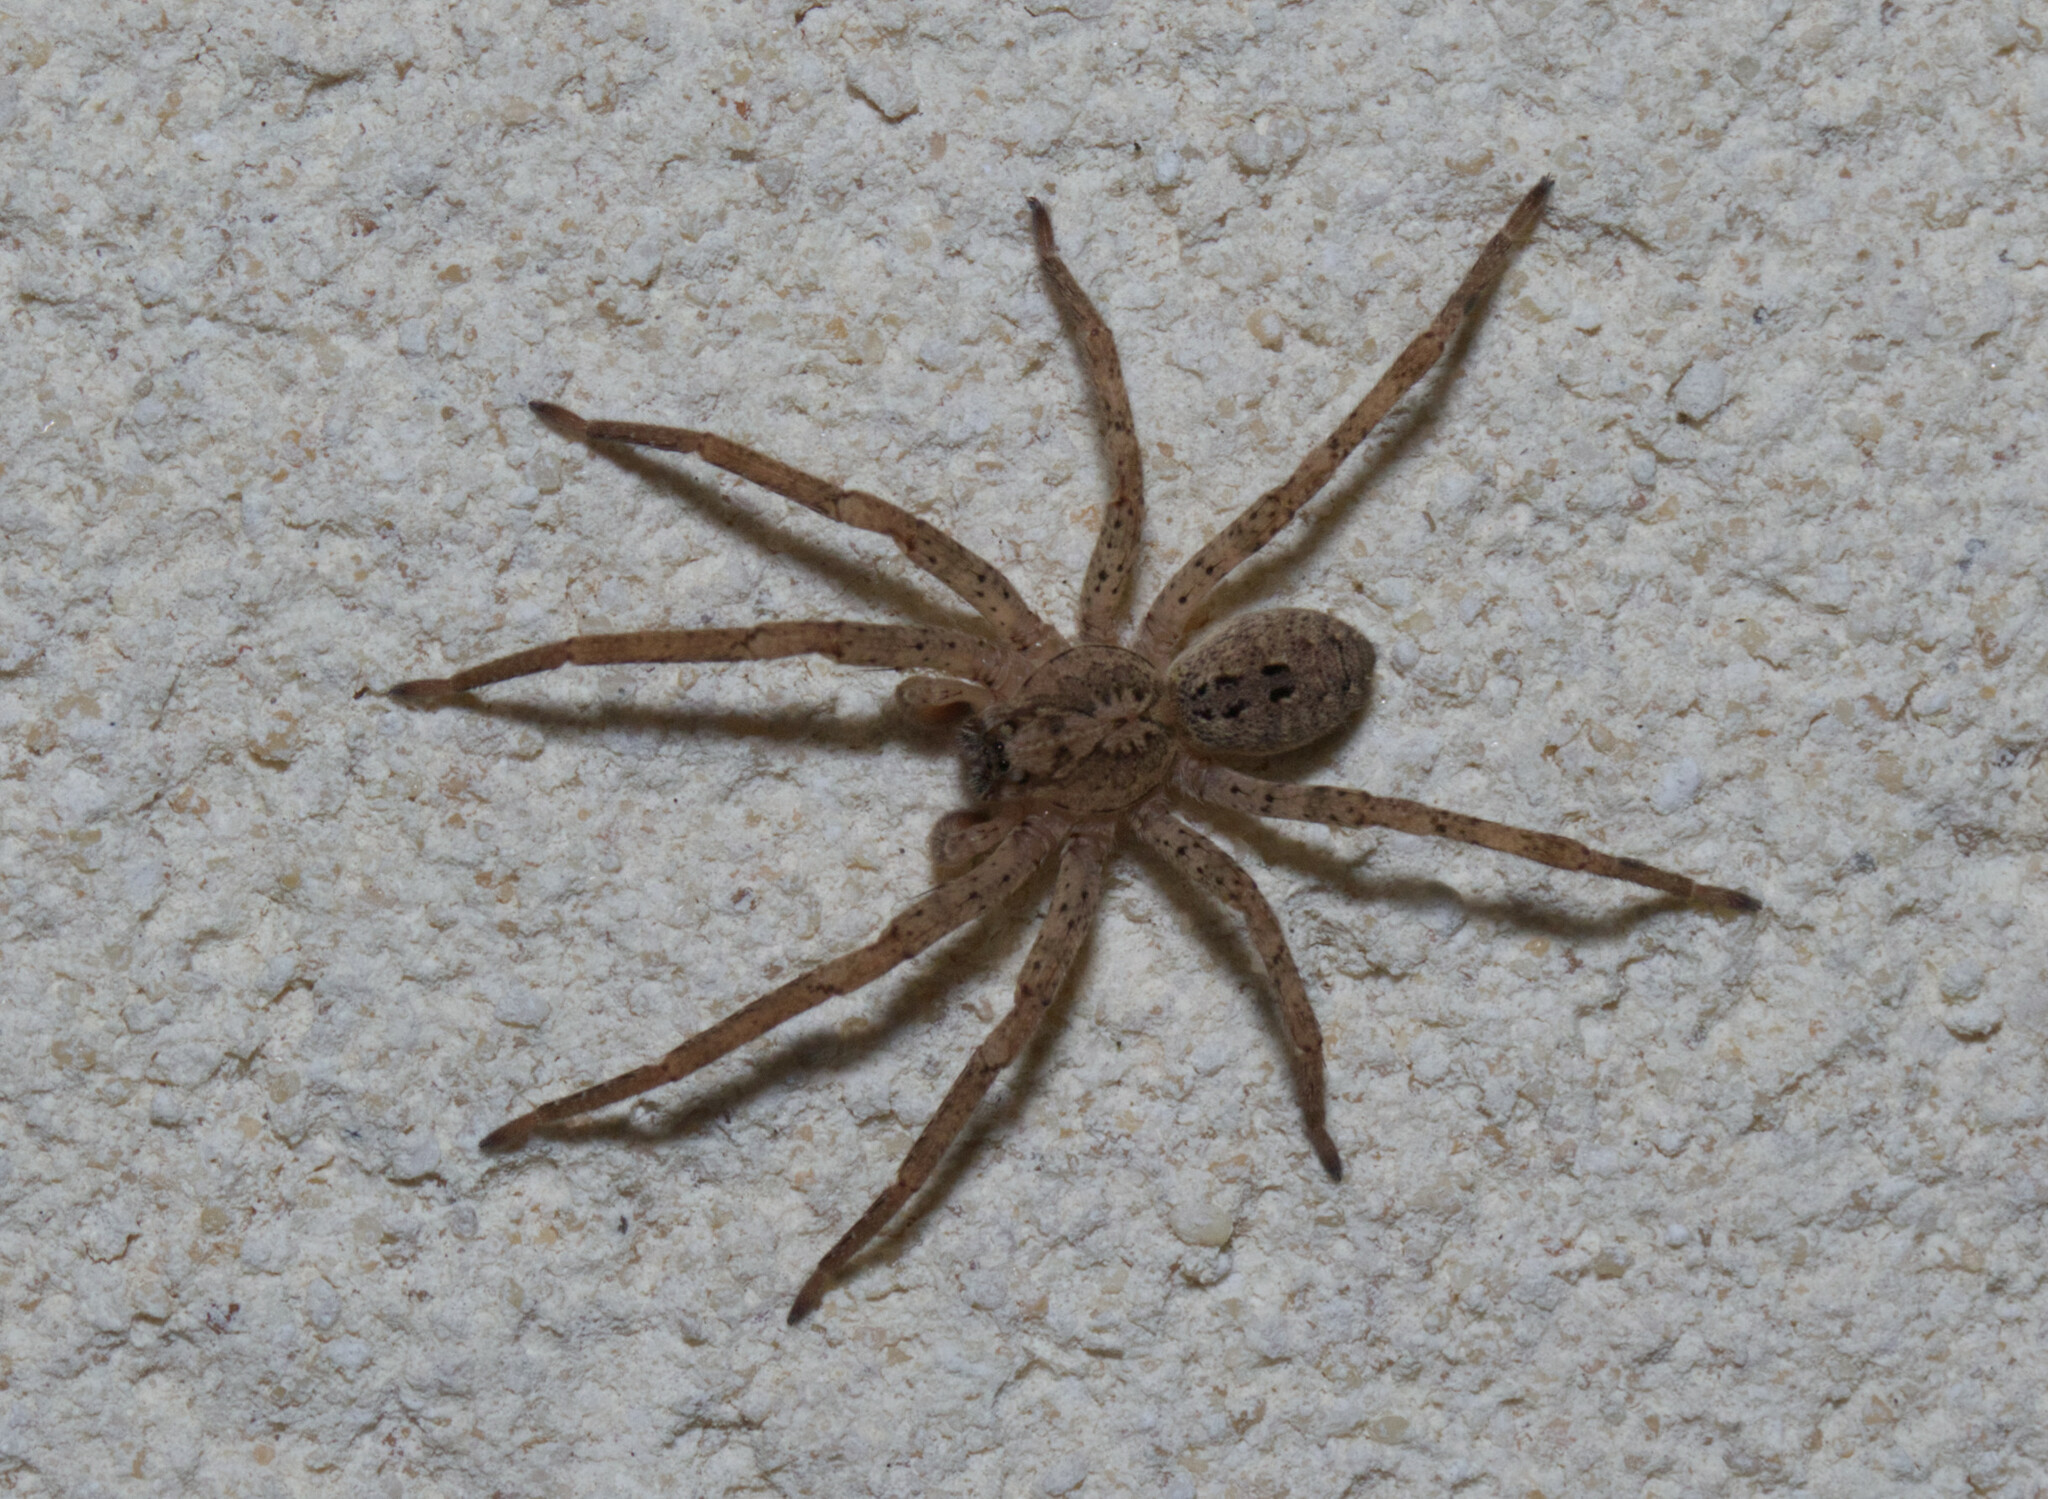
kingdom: Animalia
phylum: Arthropoda
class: Arachnida
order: Araneae
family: Zoropsidae
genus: Zoropsis
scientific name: Zoropsis spinimana
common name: Zoropsid spider
